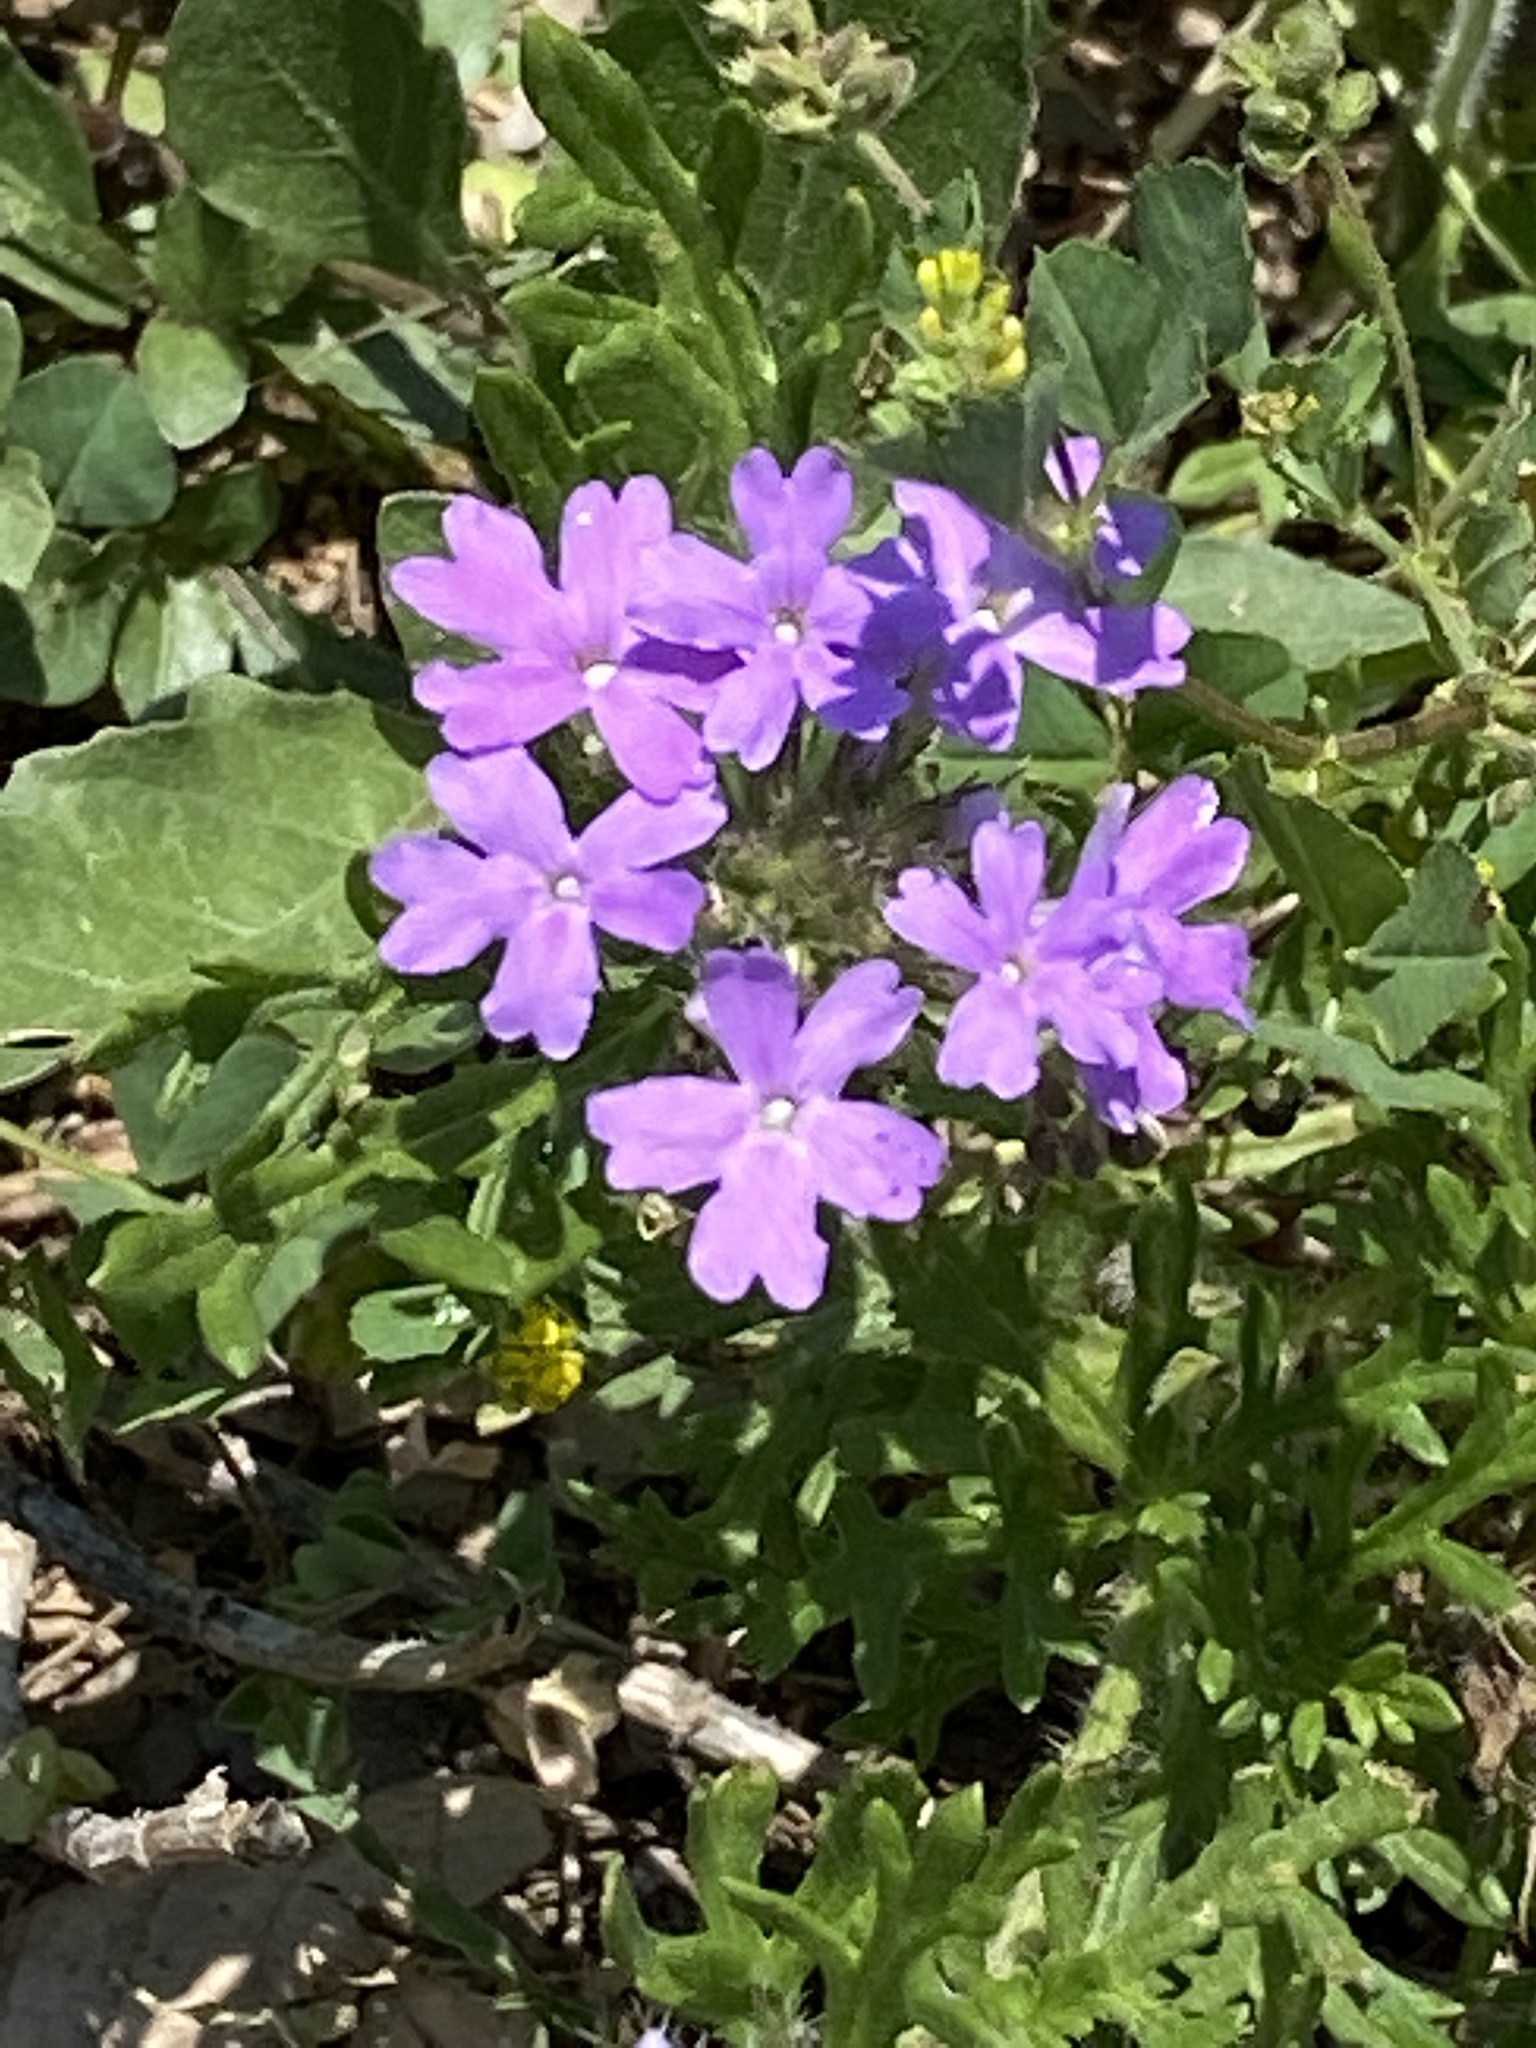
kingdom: Plantae
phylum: Tracheophyta
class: Magnoliopsida
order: Lamiales
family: Verbenaceae
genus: Verbena
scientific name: Verbena bipinnatifida
